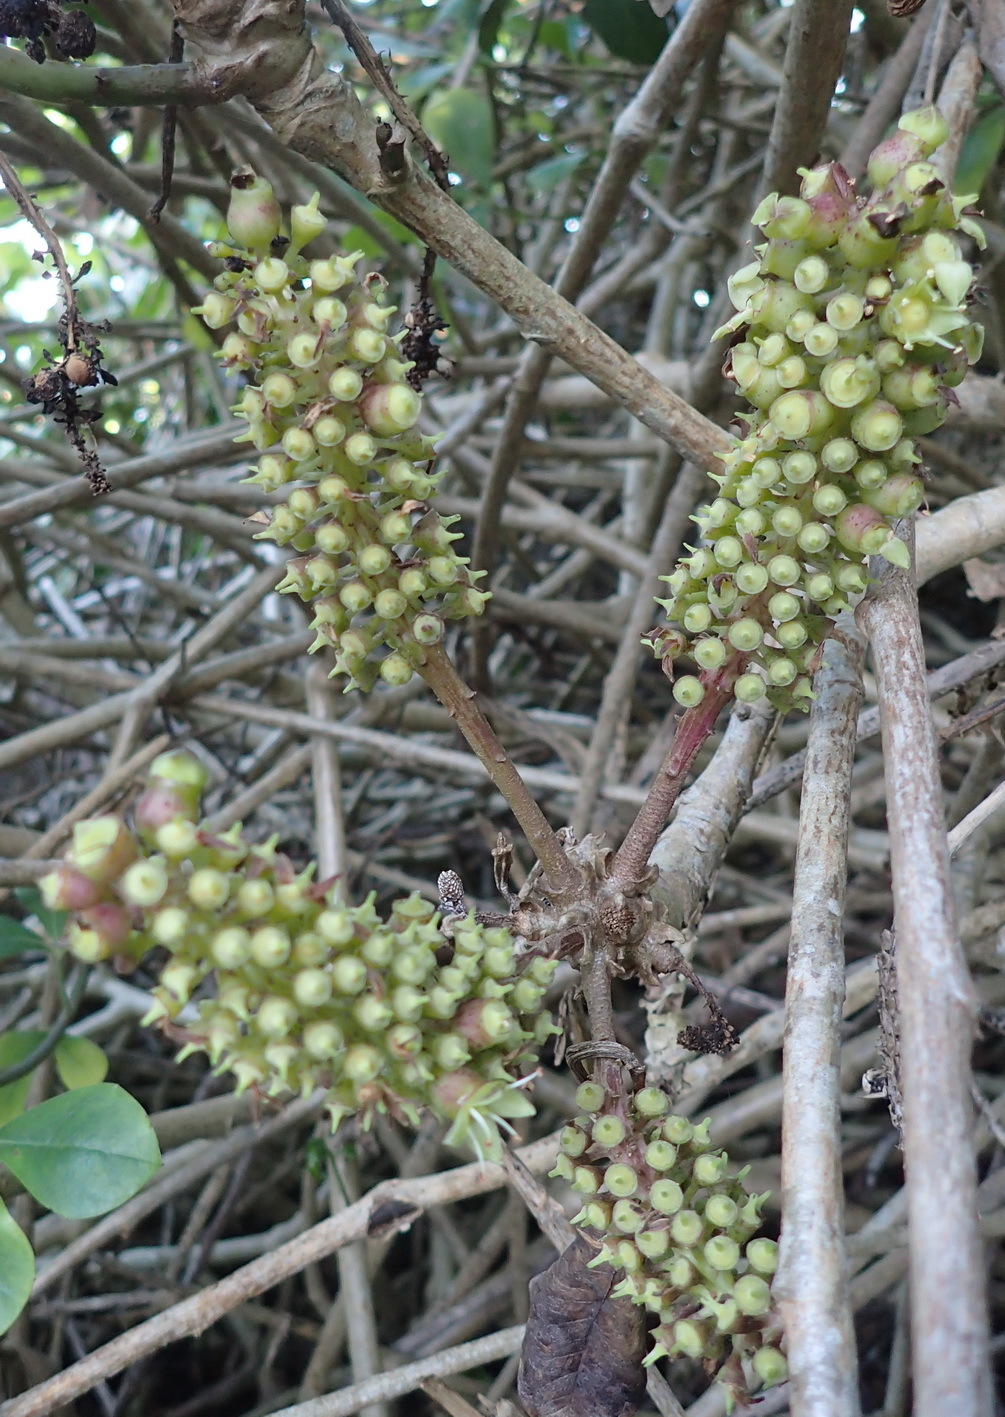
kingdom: Plantae
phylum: Tracheophyta
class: Magnoliopsida
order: Apiales
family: Araliaceae
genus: Cussonia
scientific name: Cussonia thyrsiflora
